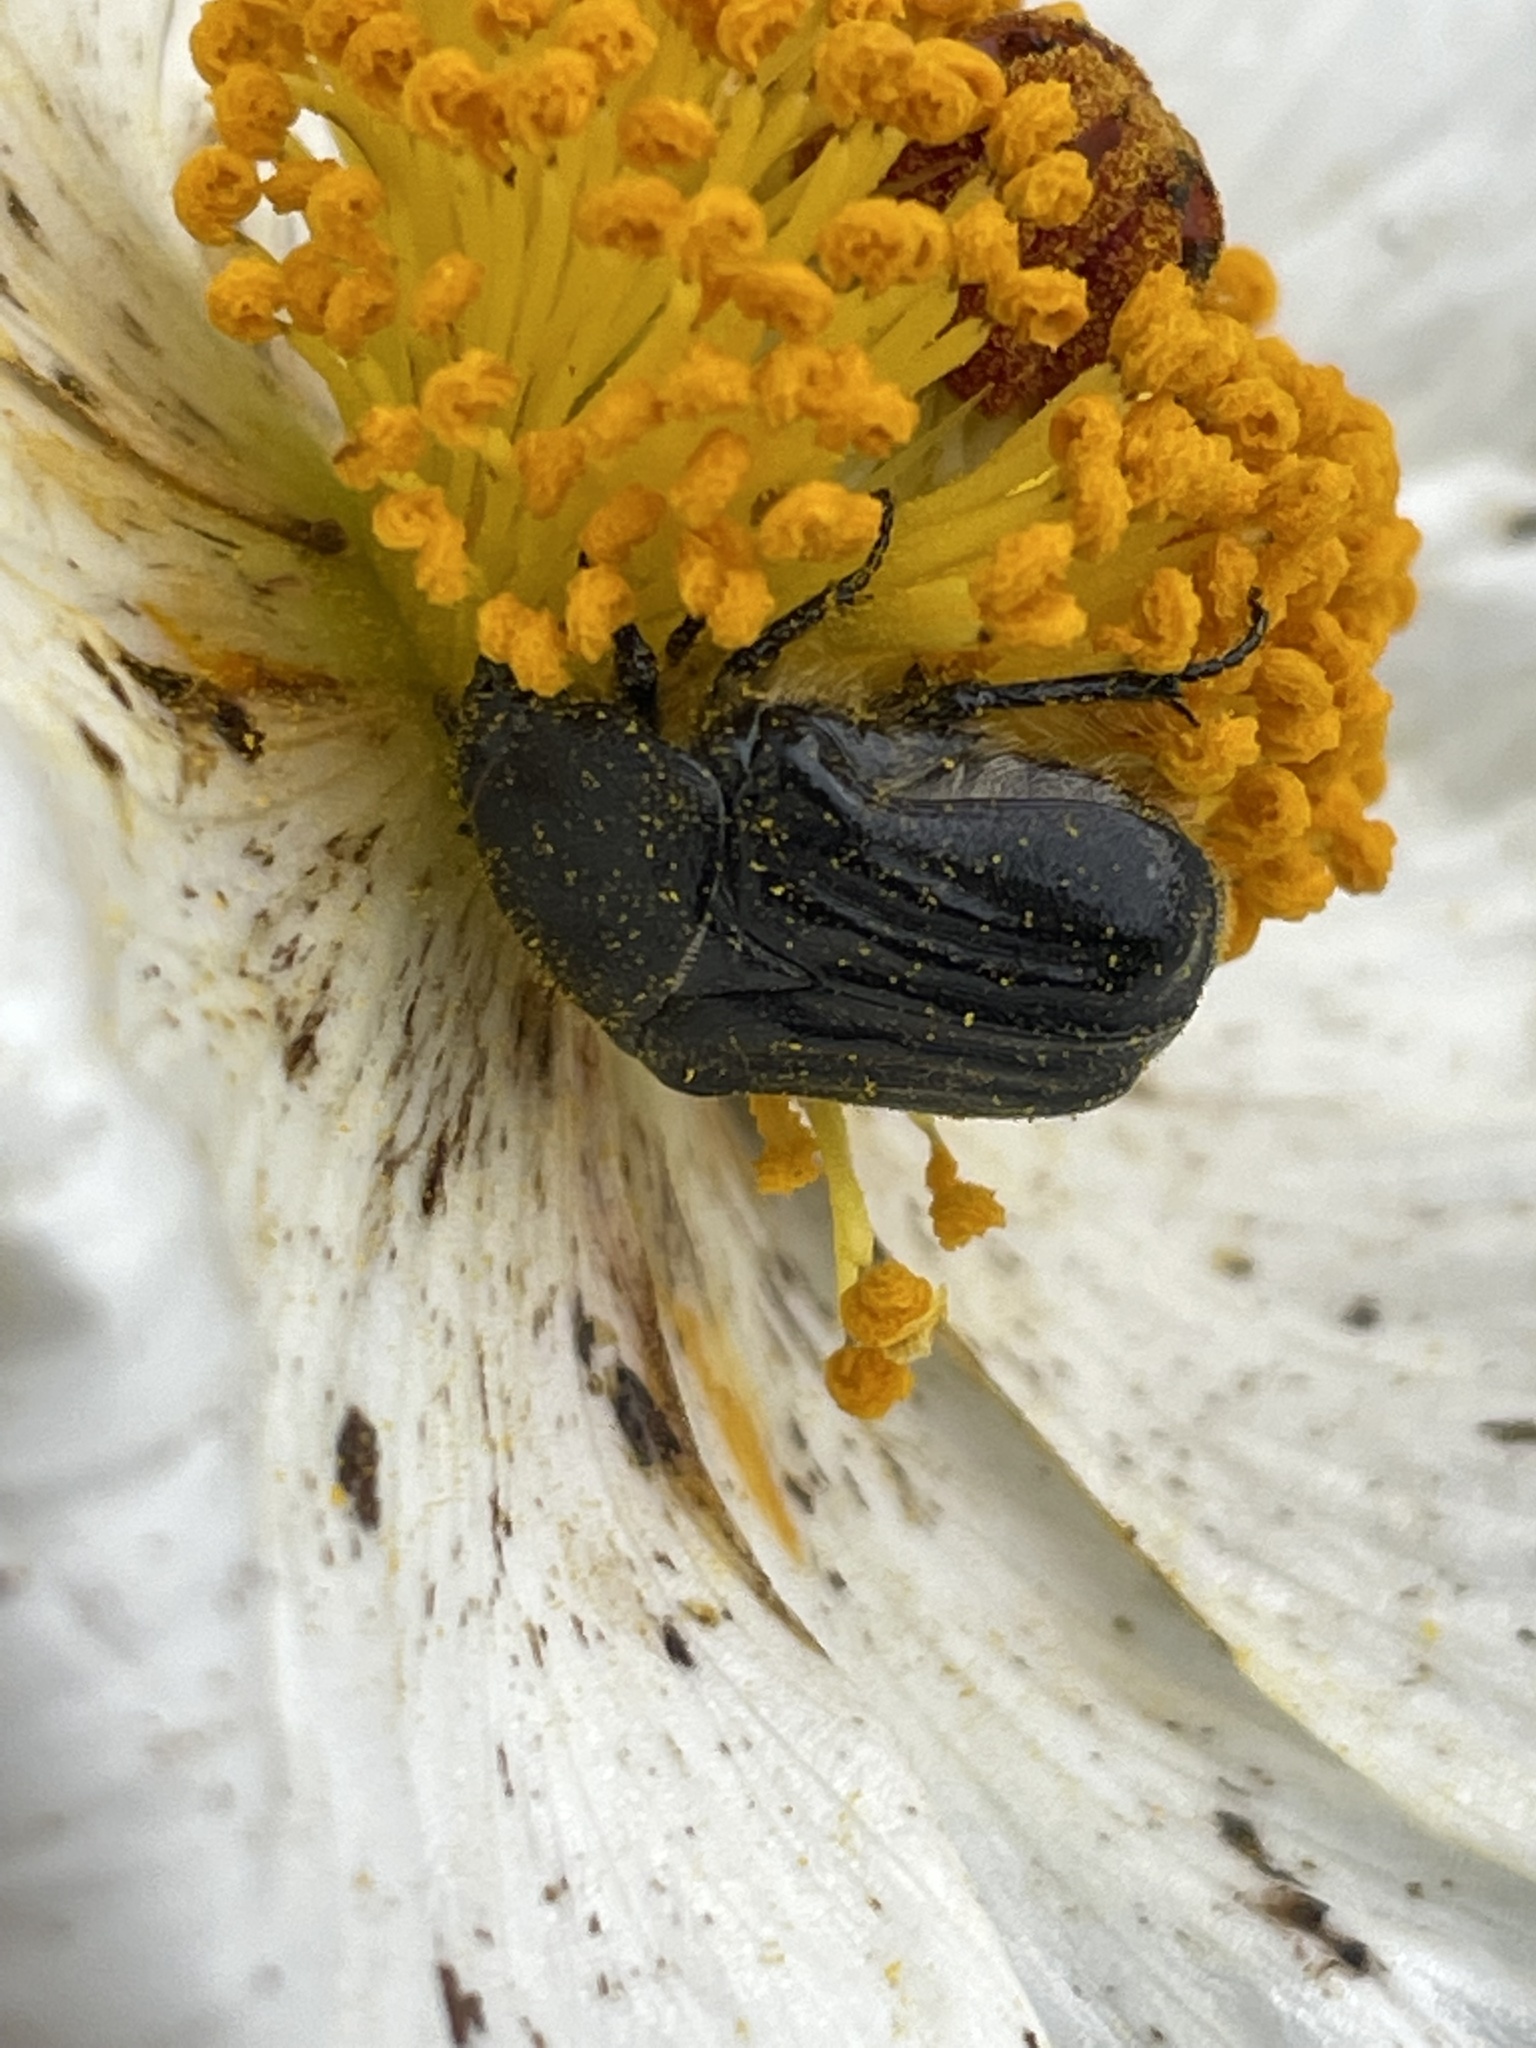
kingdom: Animalia
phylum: Arthropoda
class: Insecta
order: Coleoptera
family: Scarabaeidae
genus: Euphoria
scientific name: Euphoria kernii
